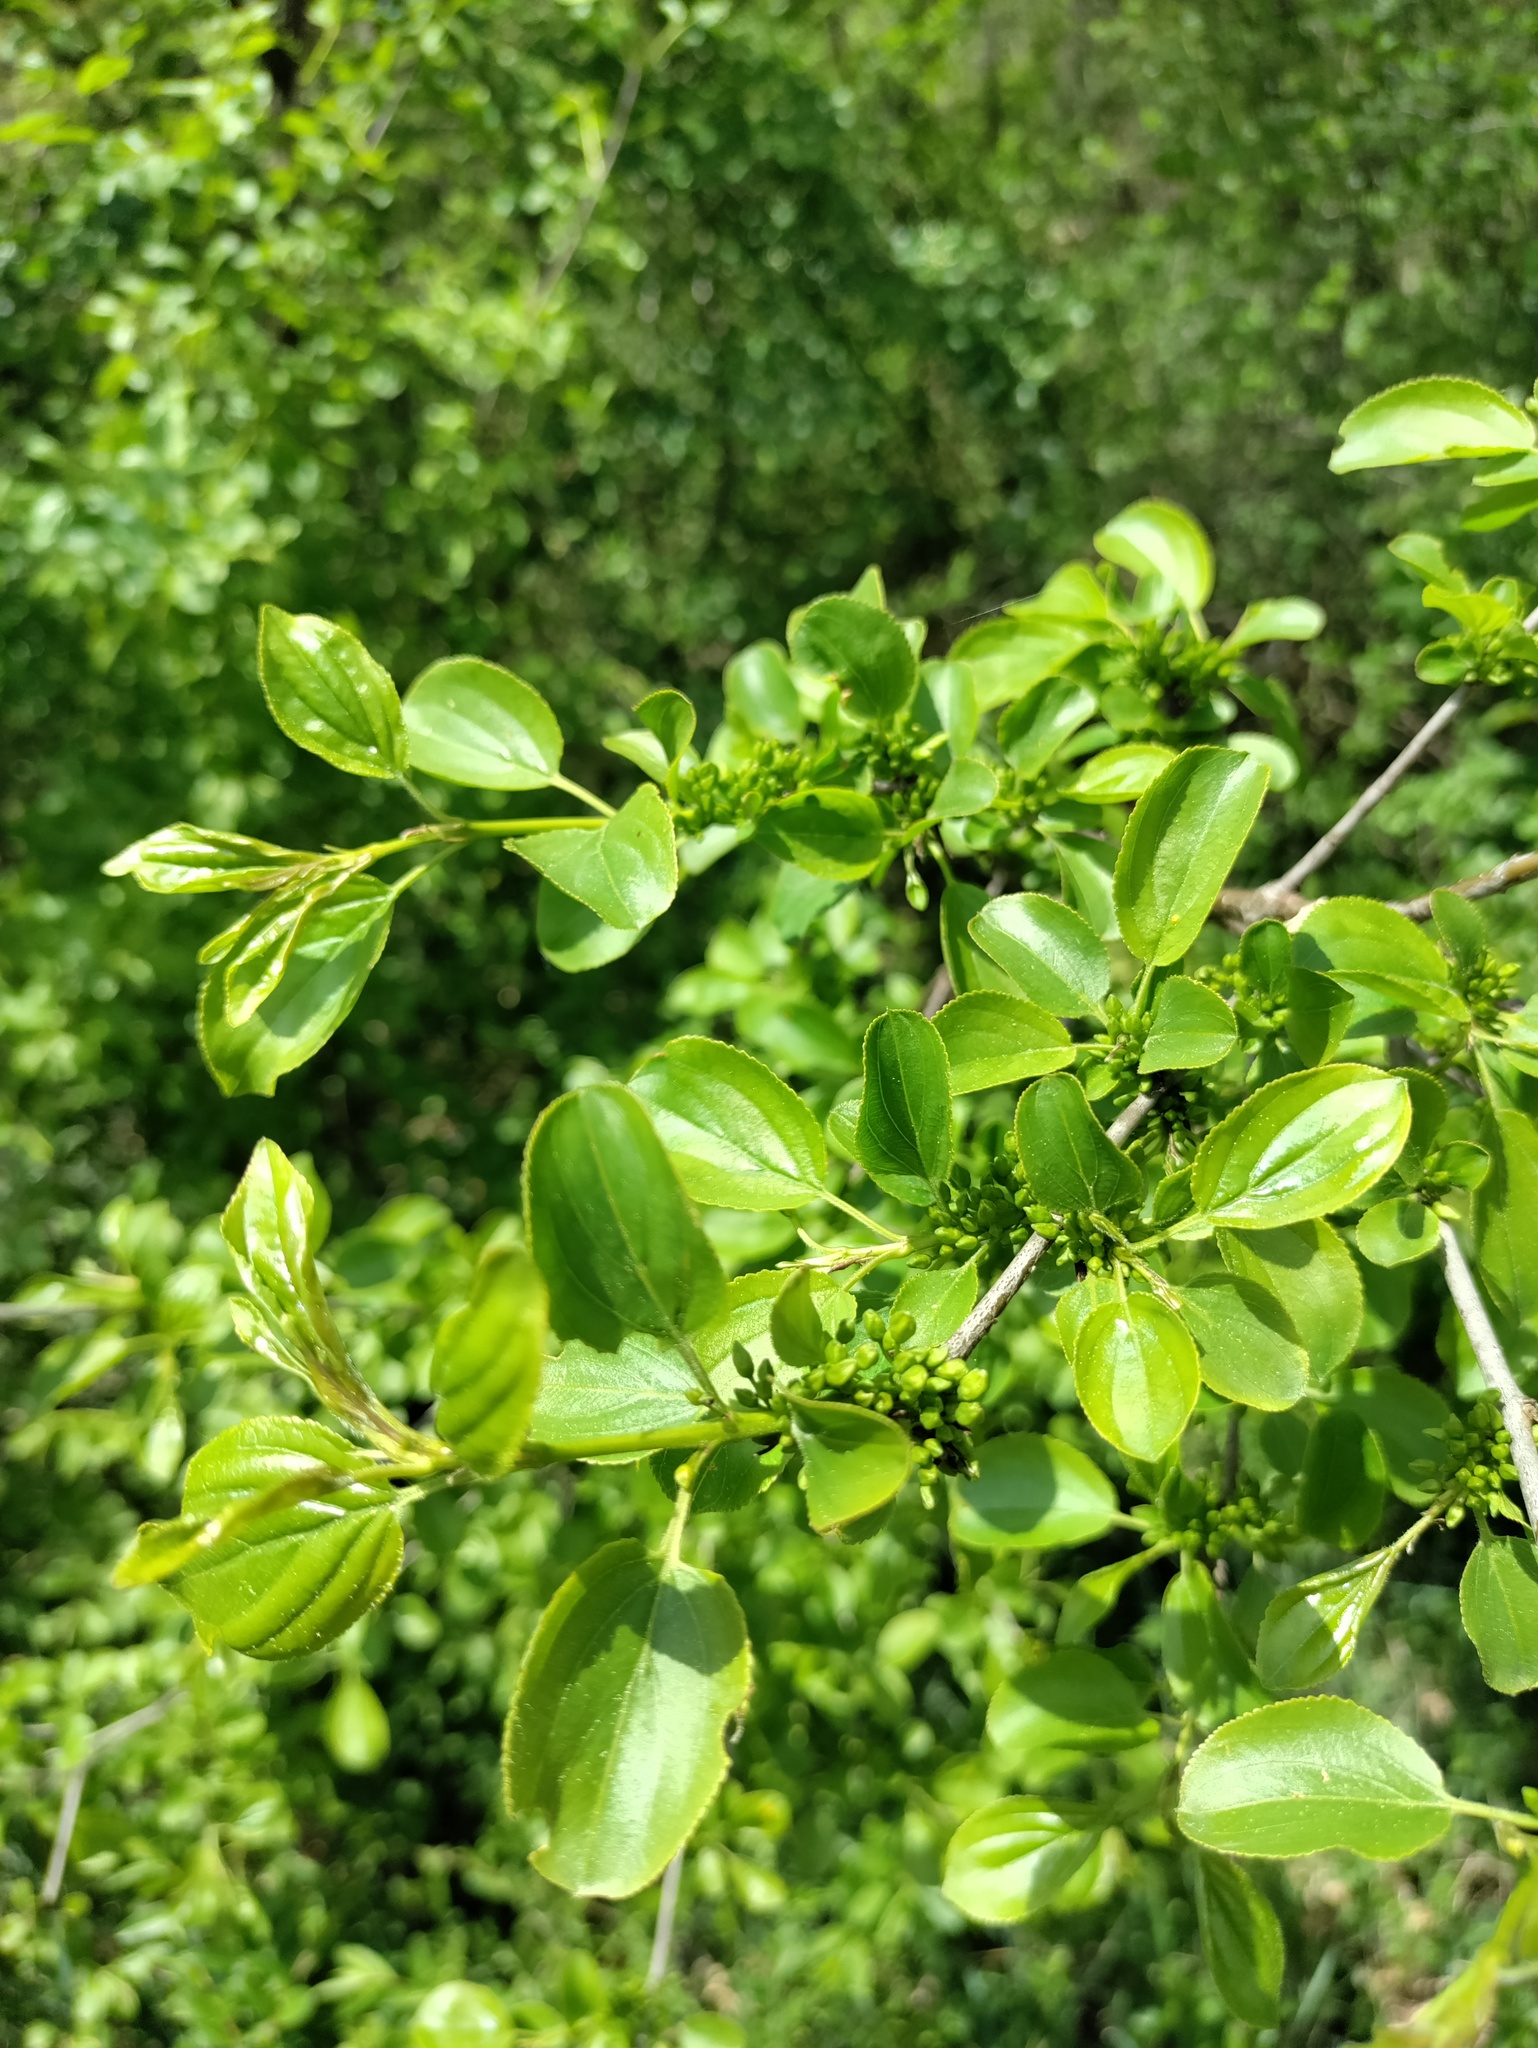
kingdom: Plantae
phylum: Tracheophyta
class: Magnoliopsida
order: Rosales
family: Rhamnaceae
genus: Rhamnus
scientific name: Rhamnus cathartica
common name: Common buckthorn
